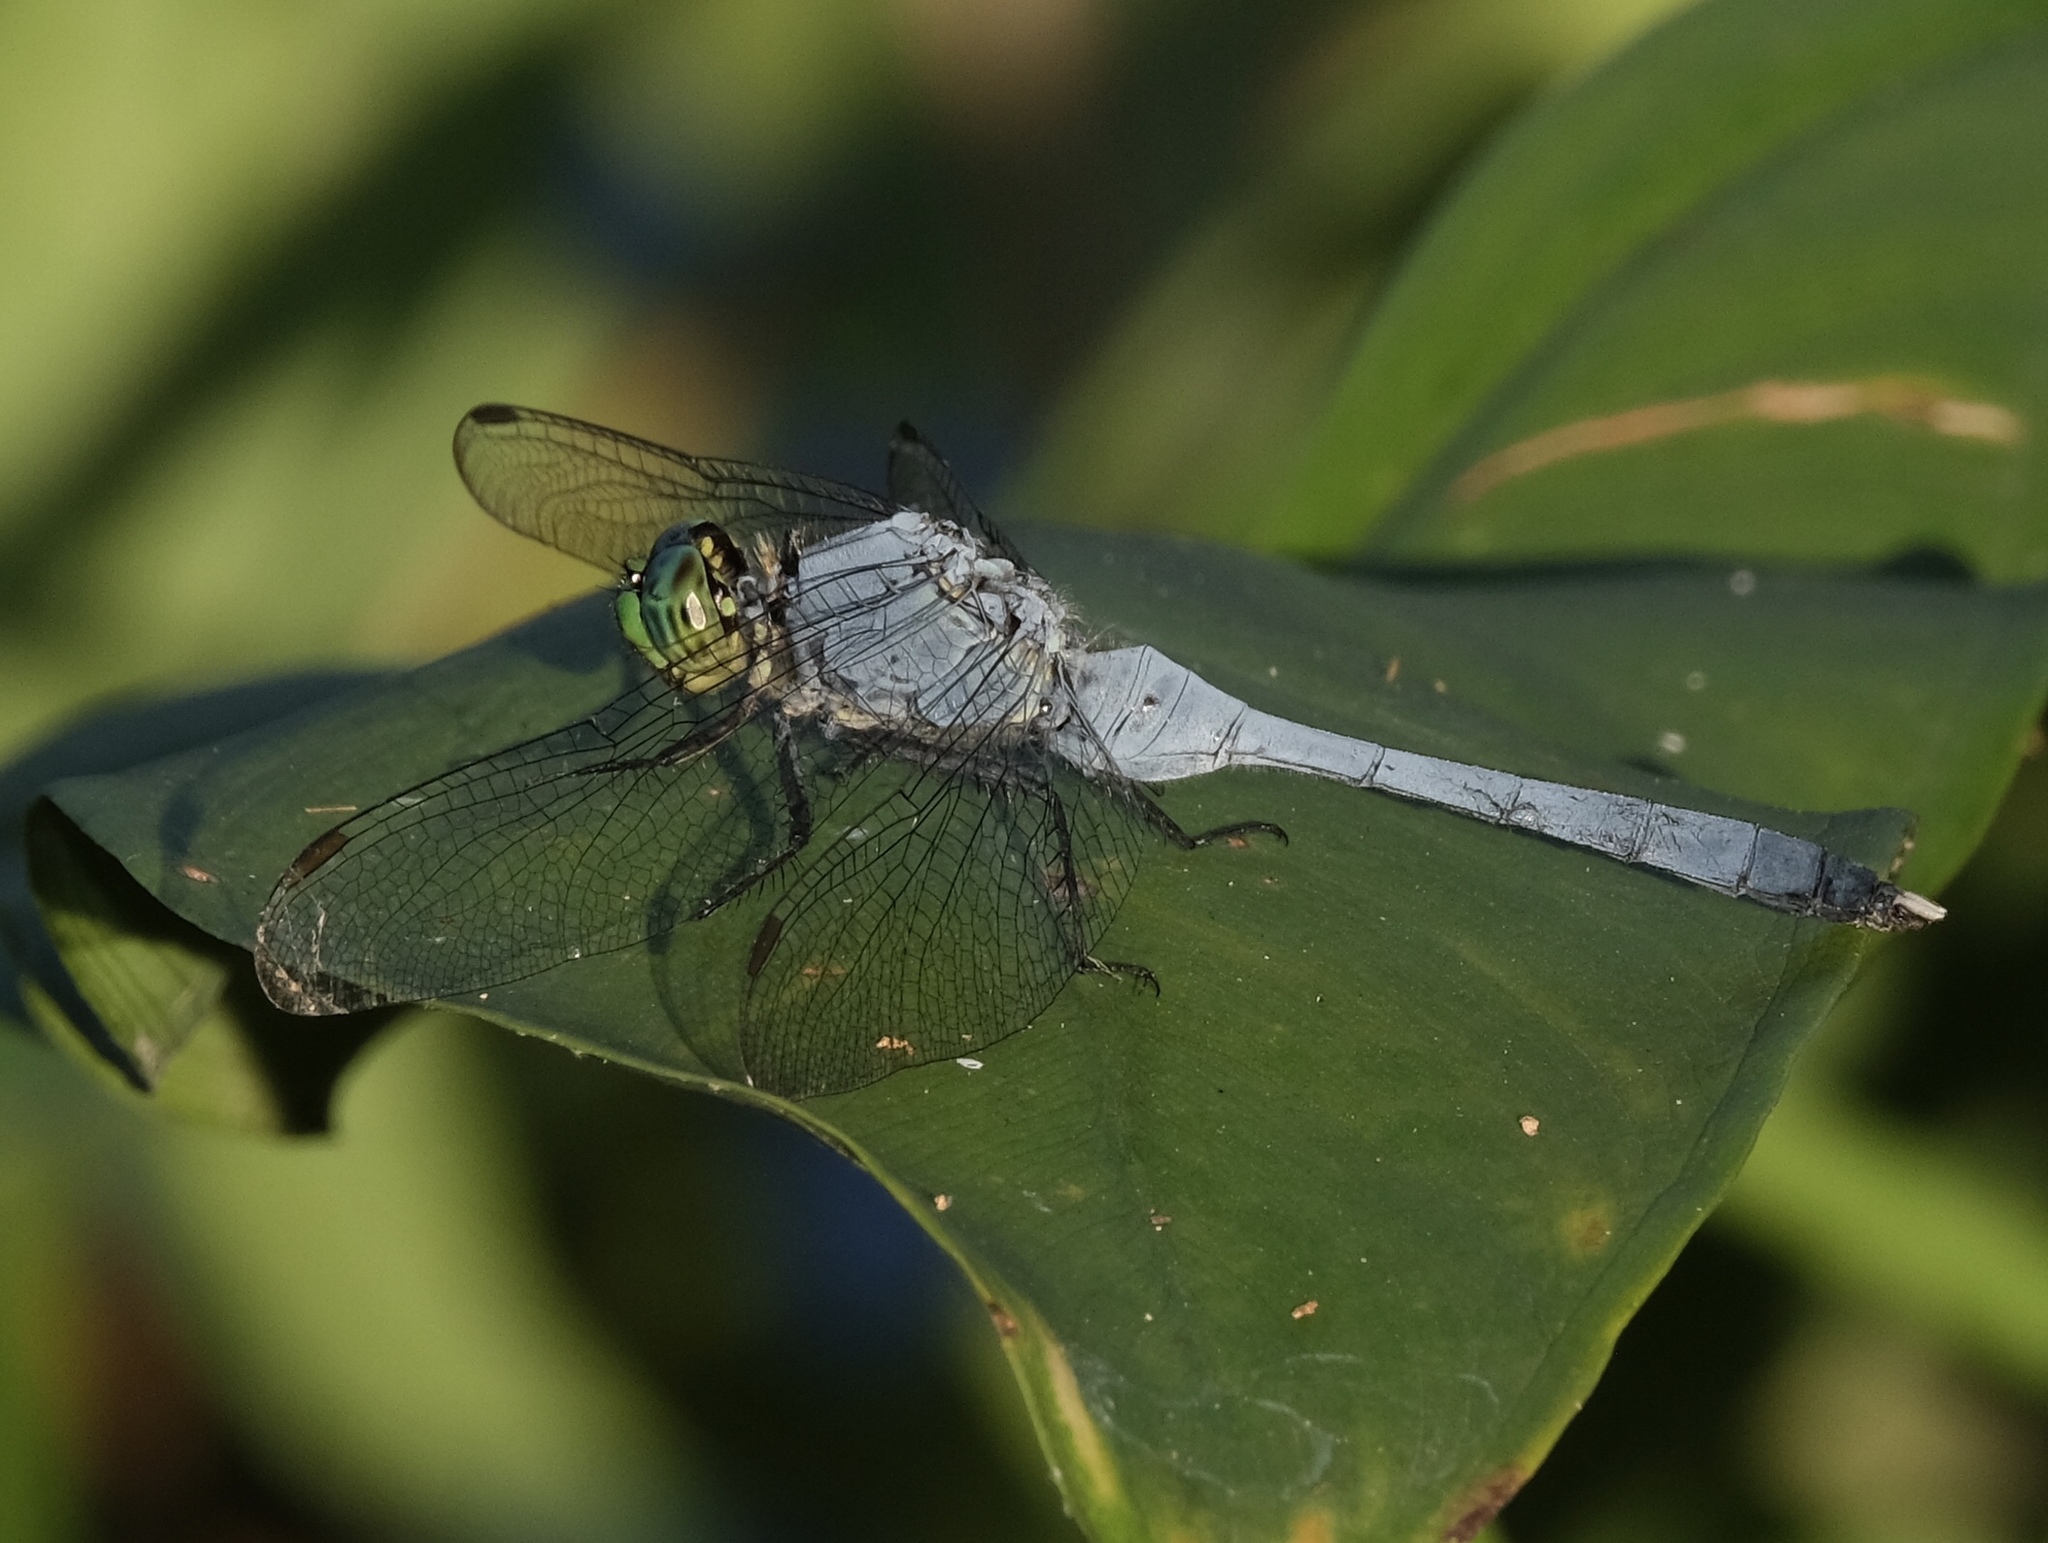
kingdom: Animalia
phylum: Arthropoda
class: Insecta
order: Odonata
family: Libellulidae
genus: Erythemis
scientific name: Erythemis simplicicollis
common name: Eastern pondhawk
